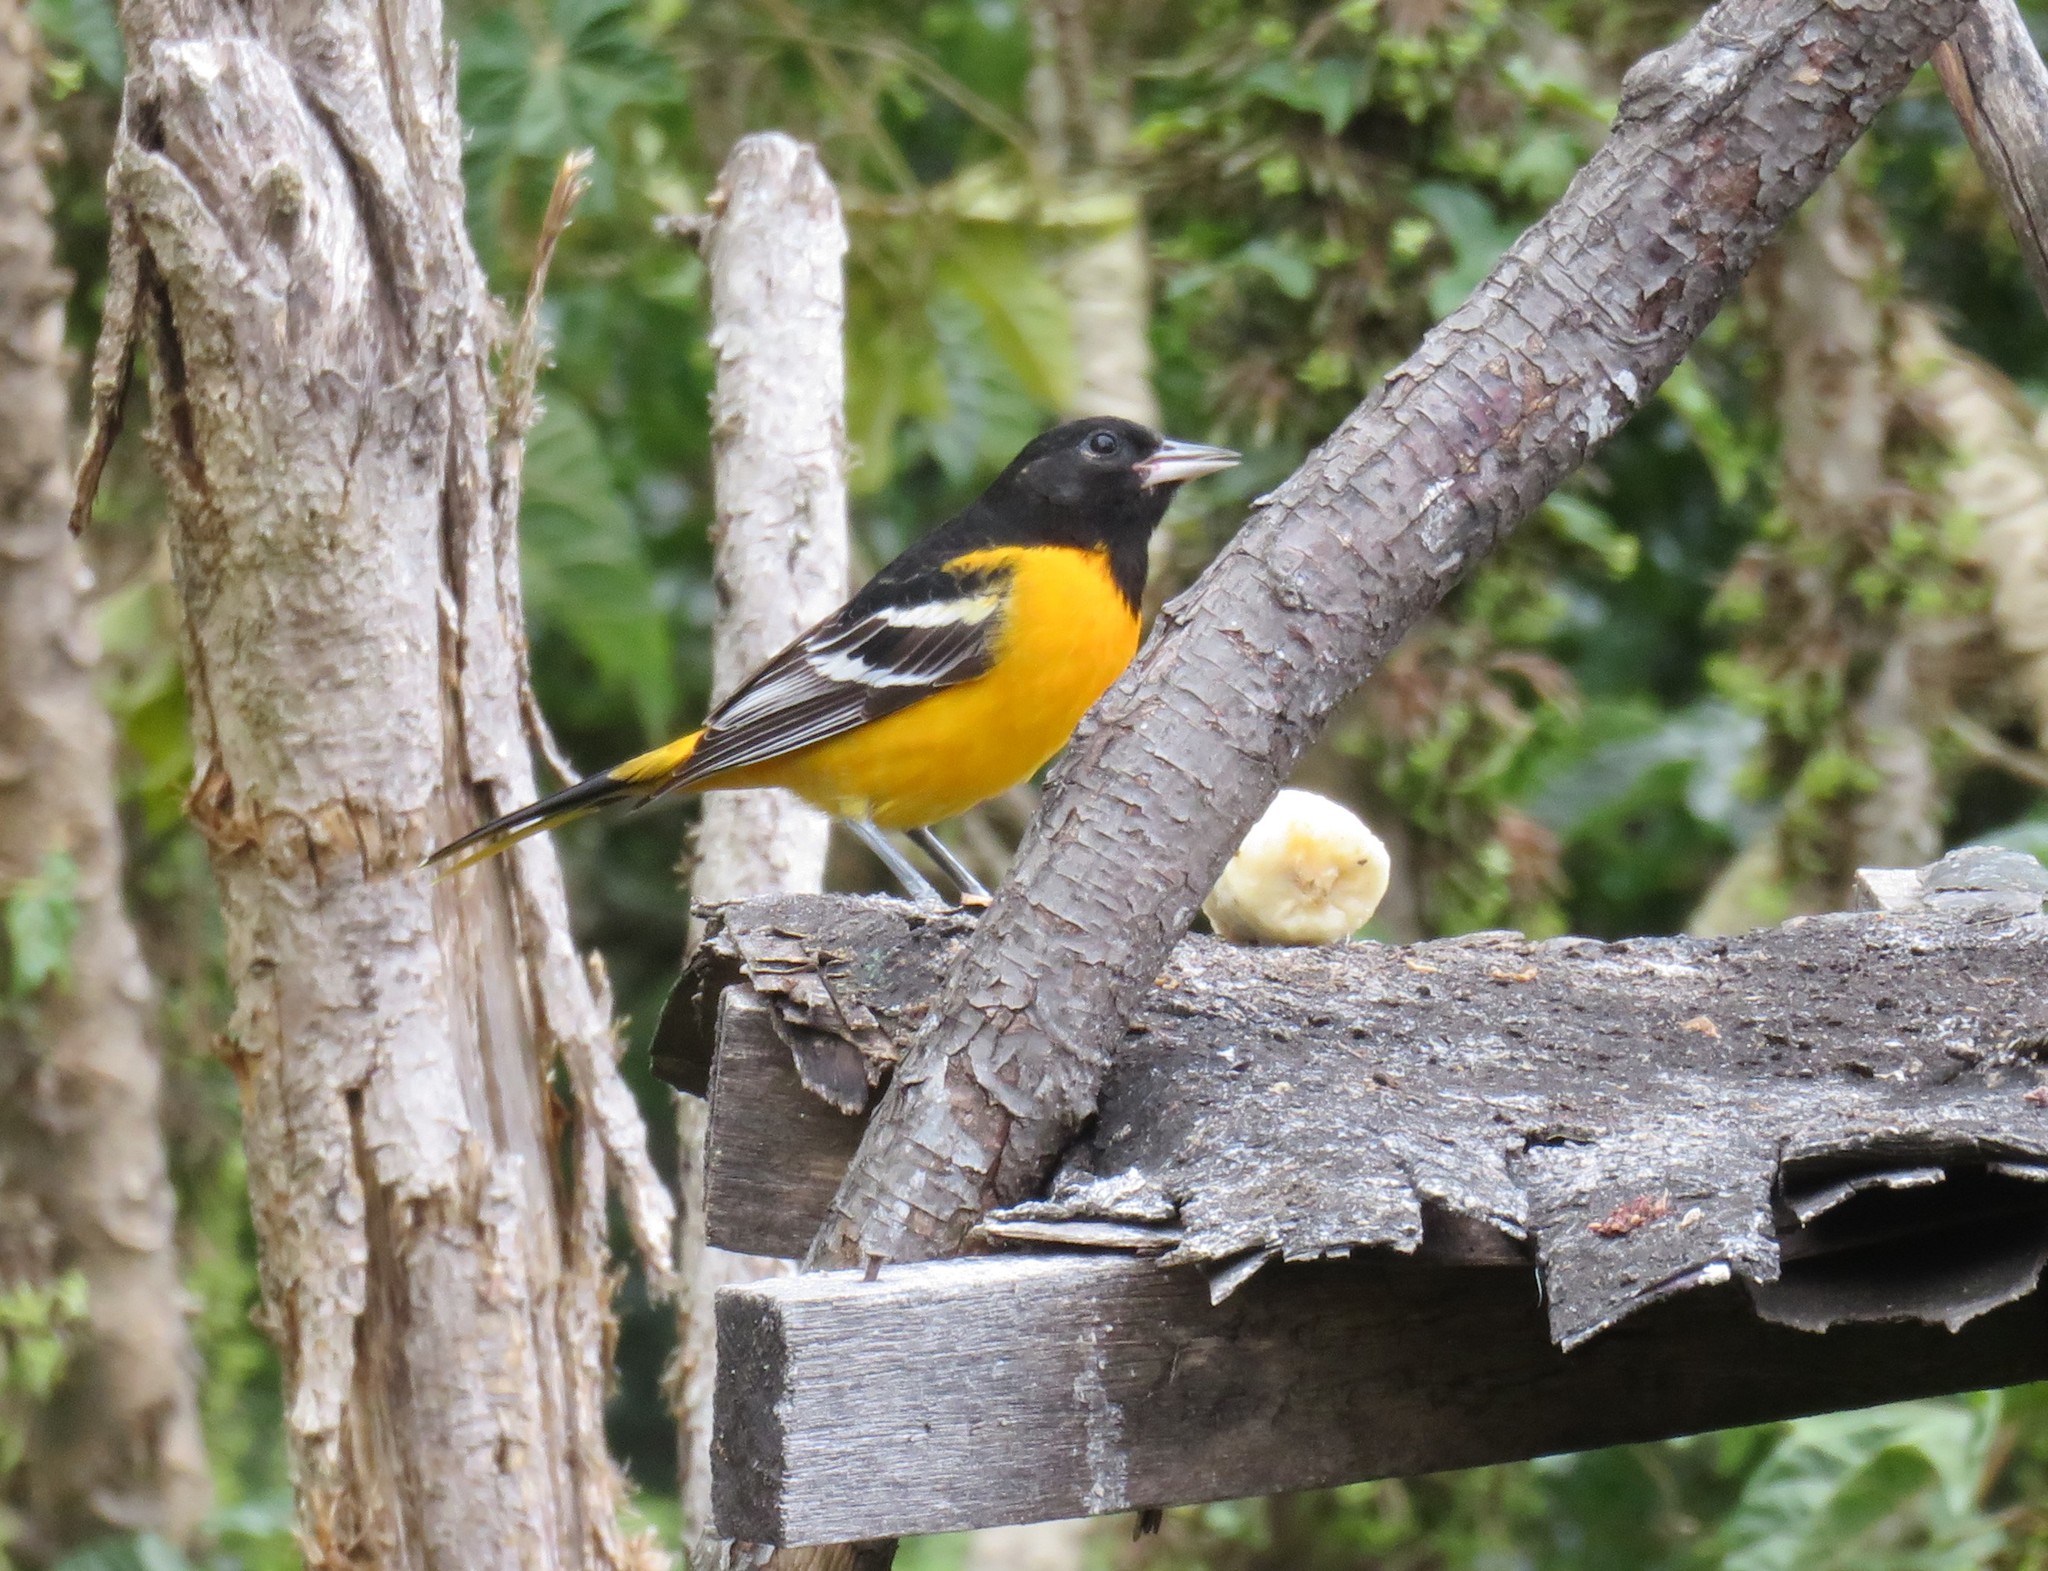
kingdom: Animalia
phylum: Chordata
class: Aves
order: Passeriformes
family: Icteridae
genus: Icterus
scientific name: Icterus galbula
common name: Baltimore oriole
